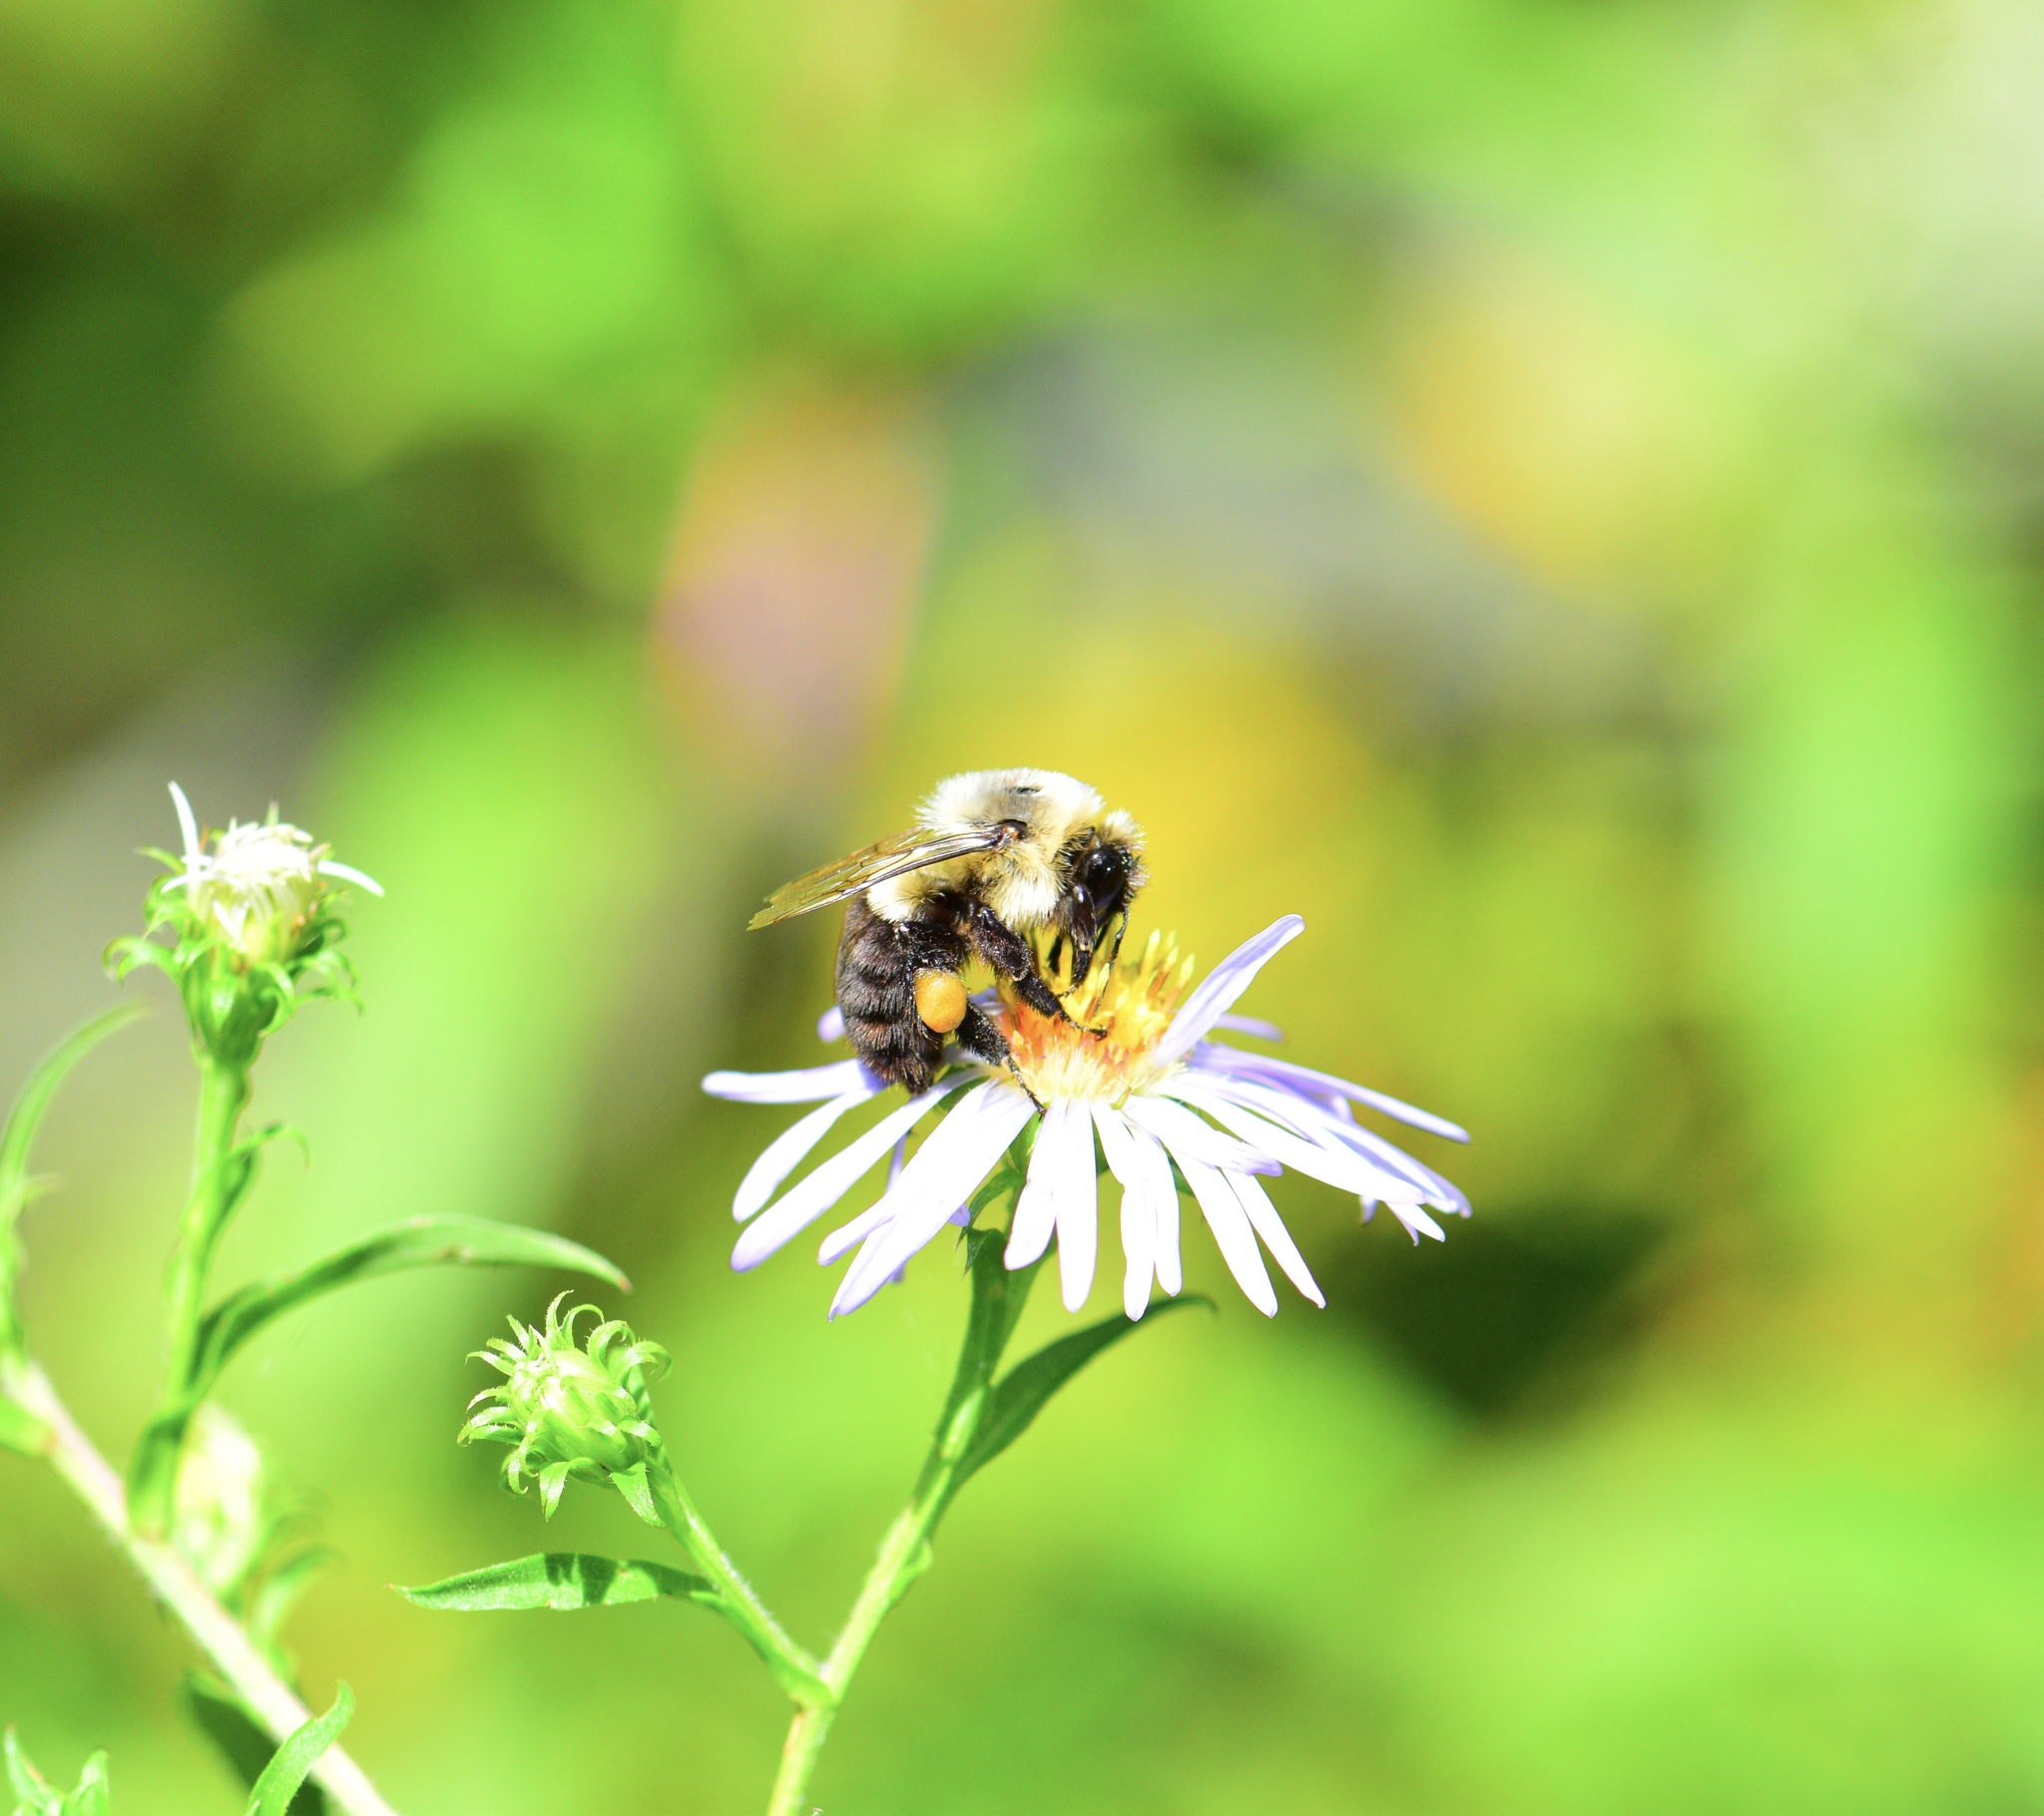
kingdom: Animalia
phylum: Arthropoda
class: Insecta
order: Hymenoptera
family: Apidae
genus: Bombus
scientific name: Bombus impatiens
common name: Common eastern bumble bee
